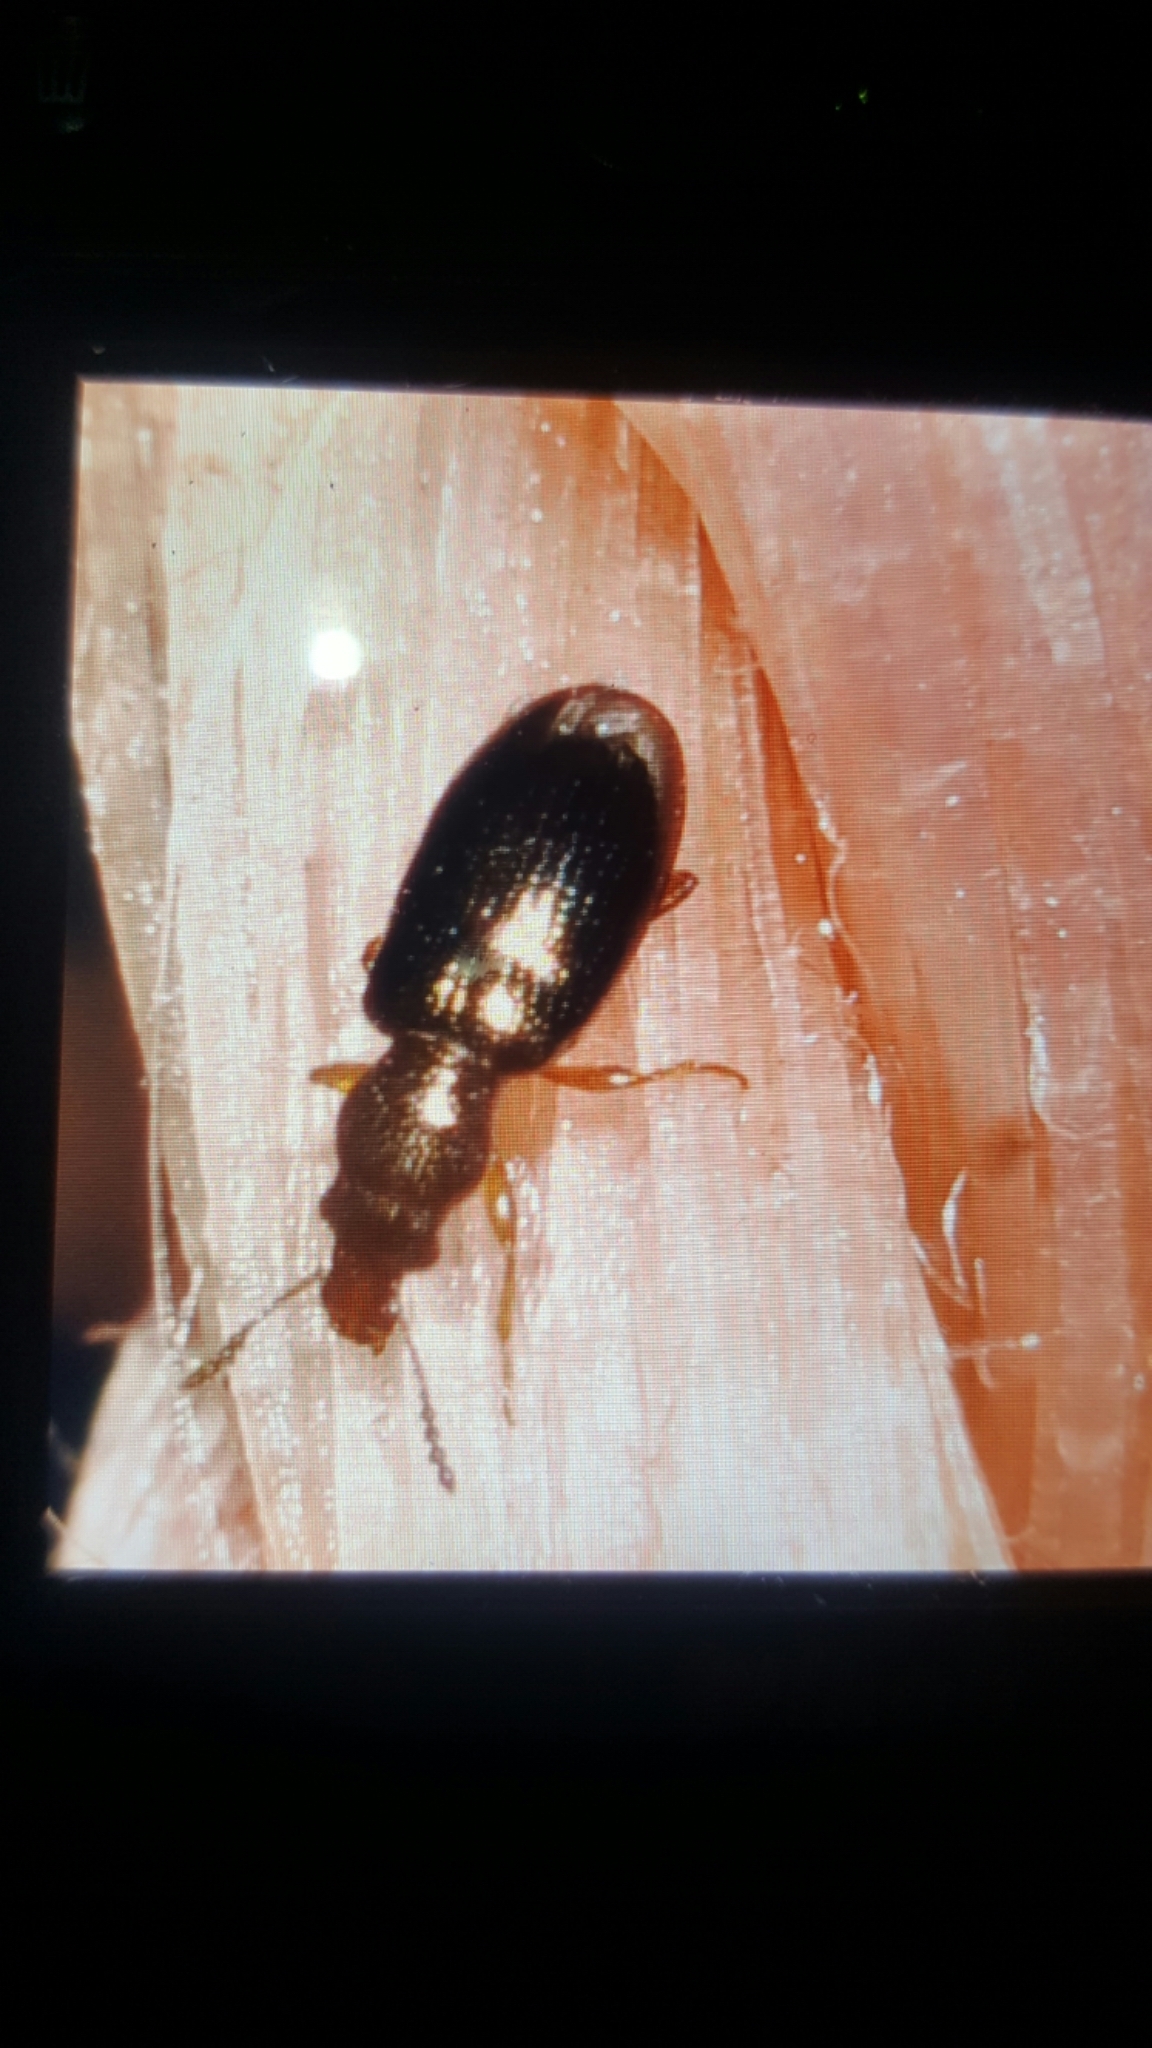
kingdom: Animalia
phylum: Arthropoda
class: Insecta
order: Coleoptera
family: Salpingidae
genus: Salpingus
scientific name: Salpingus planirostris
